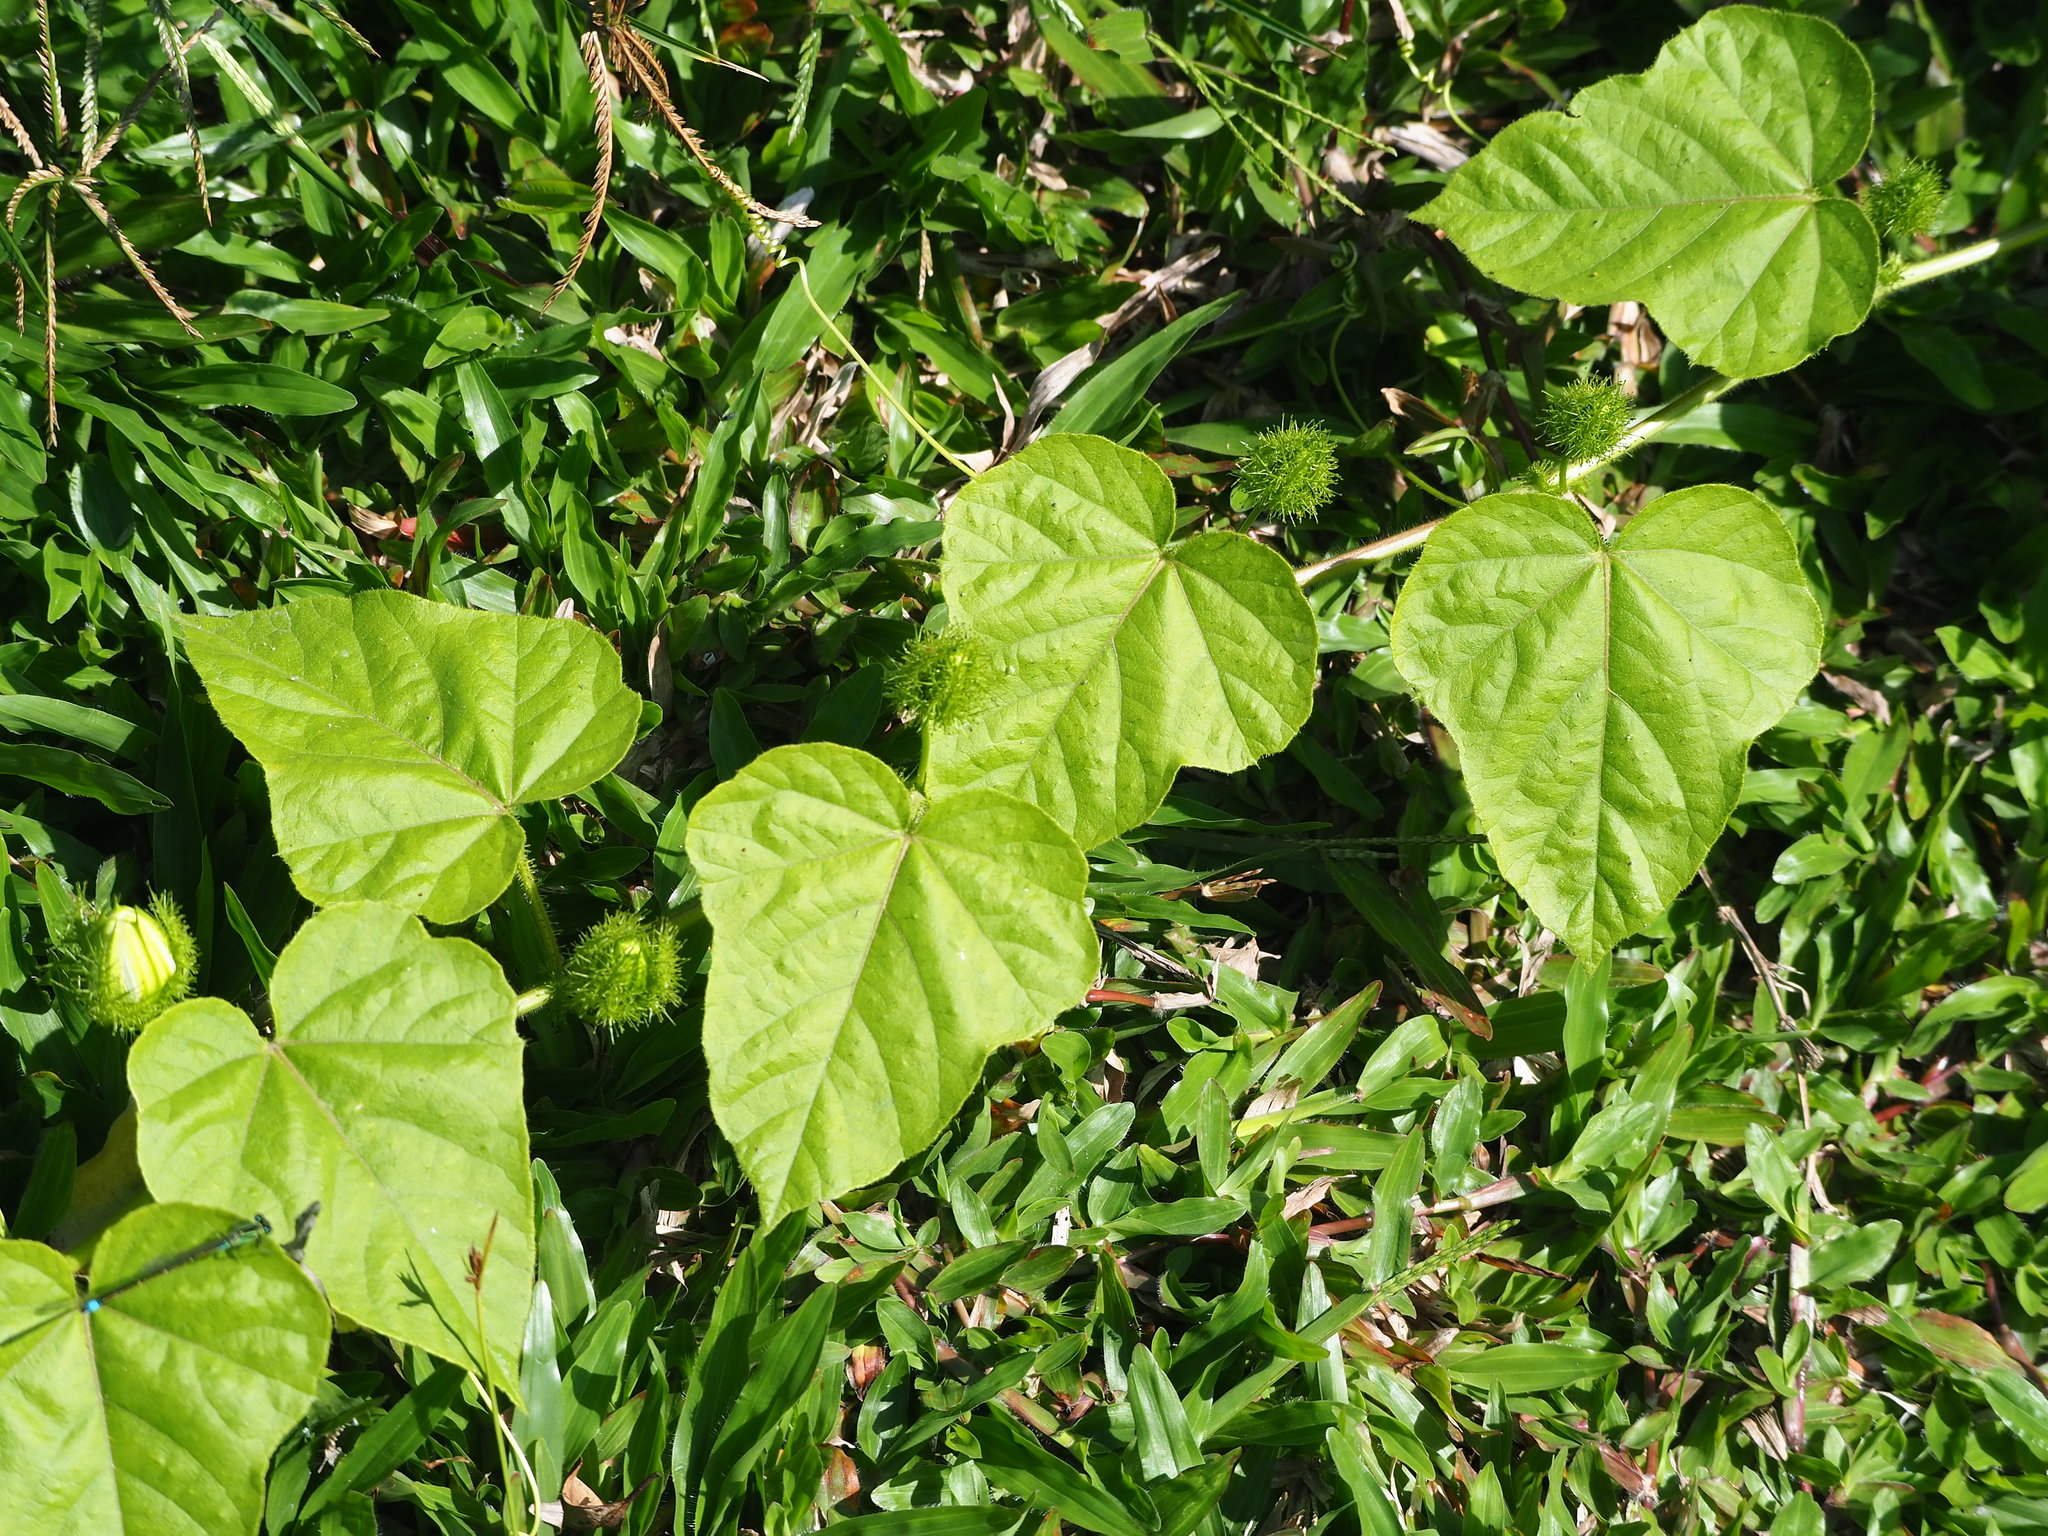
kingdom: Plantae
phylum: Tracheophyta
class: Magnoliopsida
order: Malpighiales
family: Passifloraceae
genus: Passiflora
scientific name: Passiflora vesicaria
